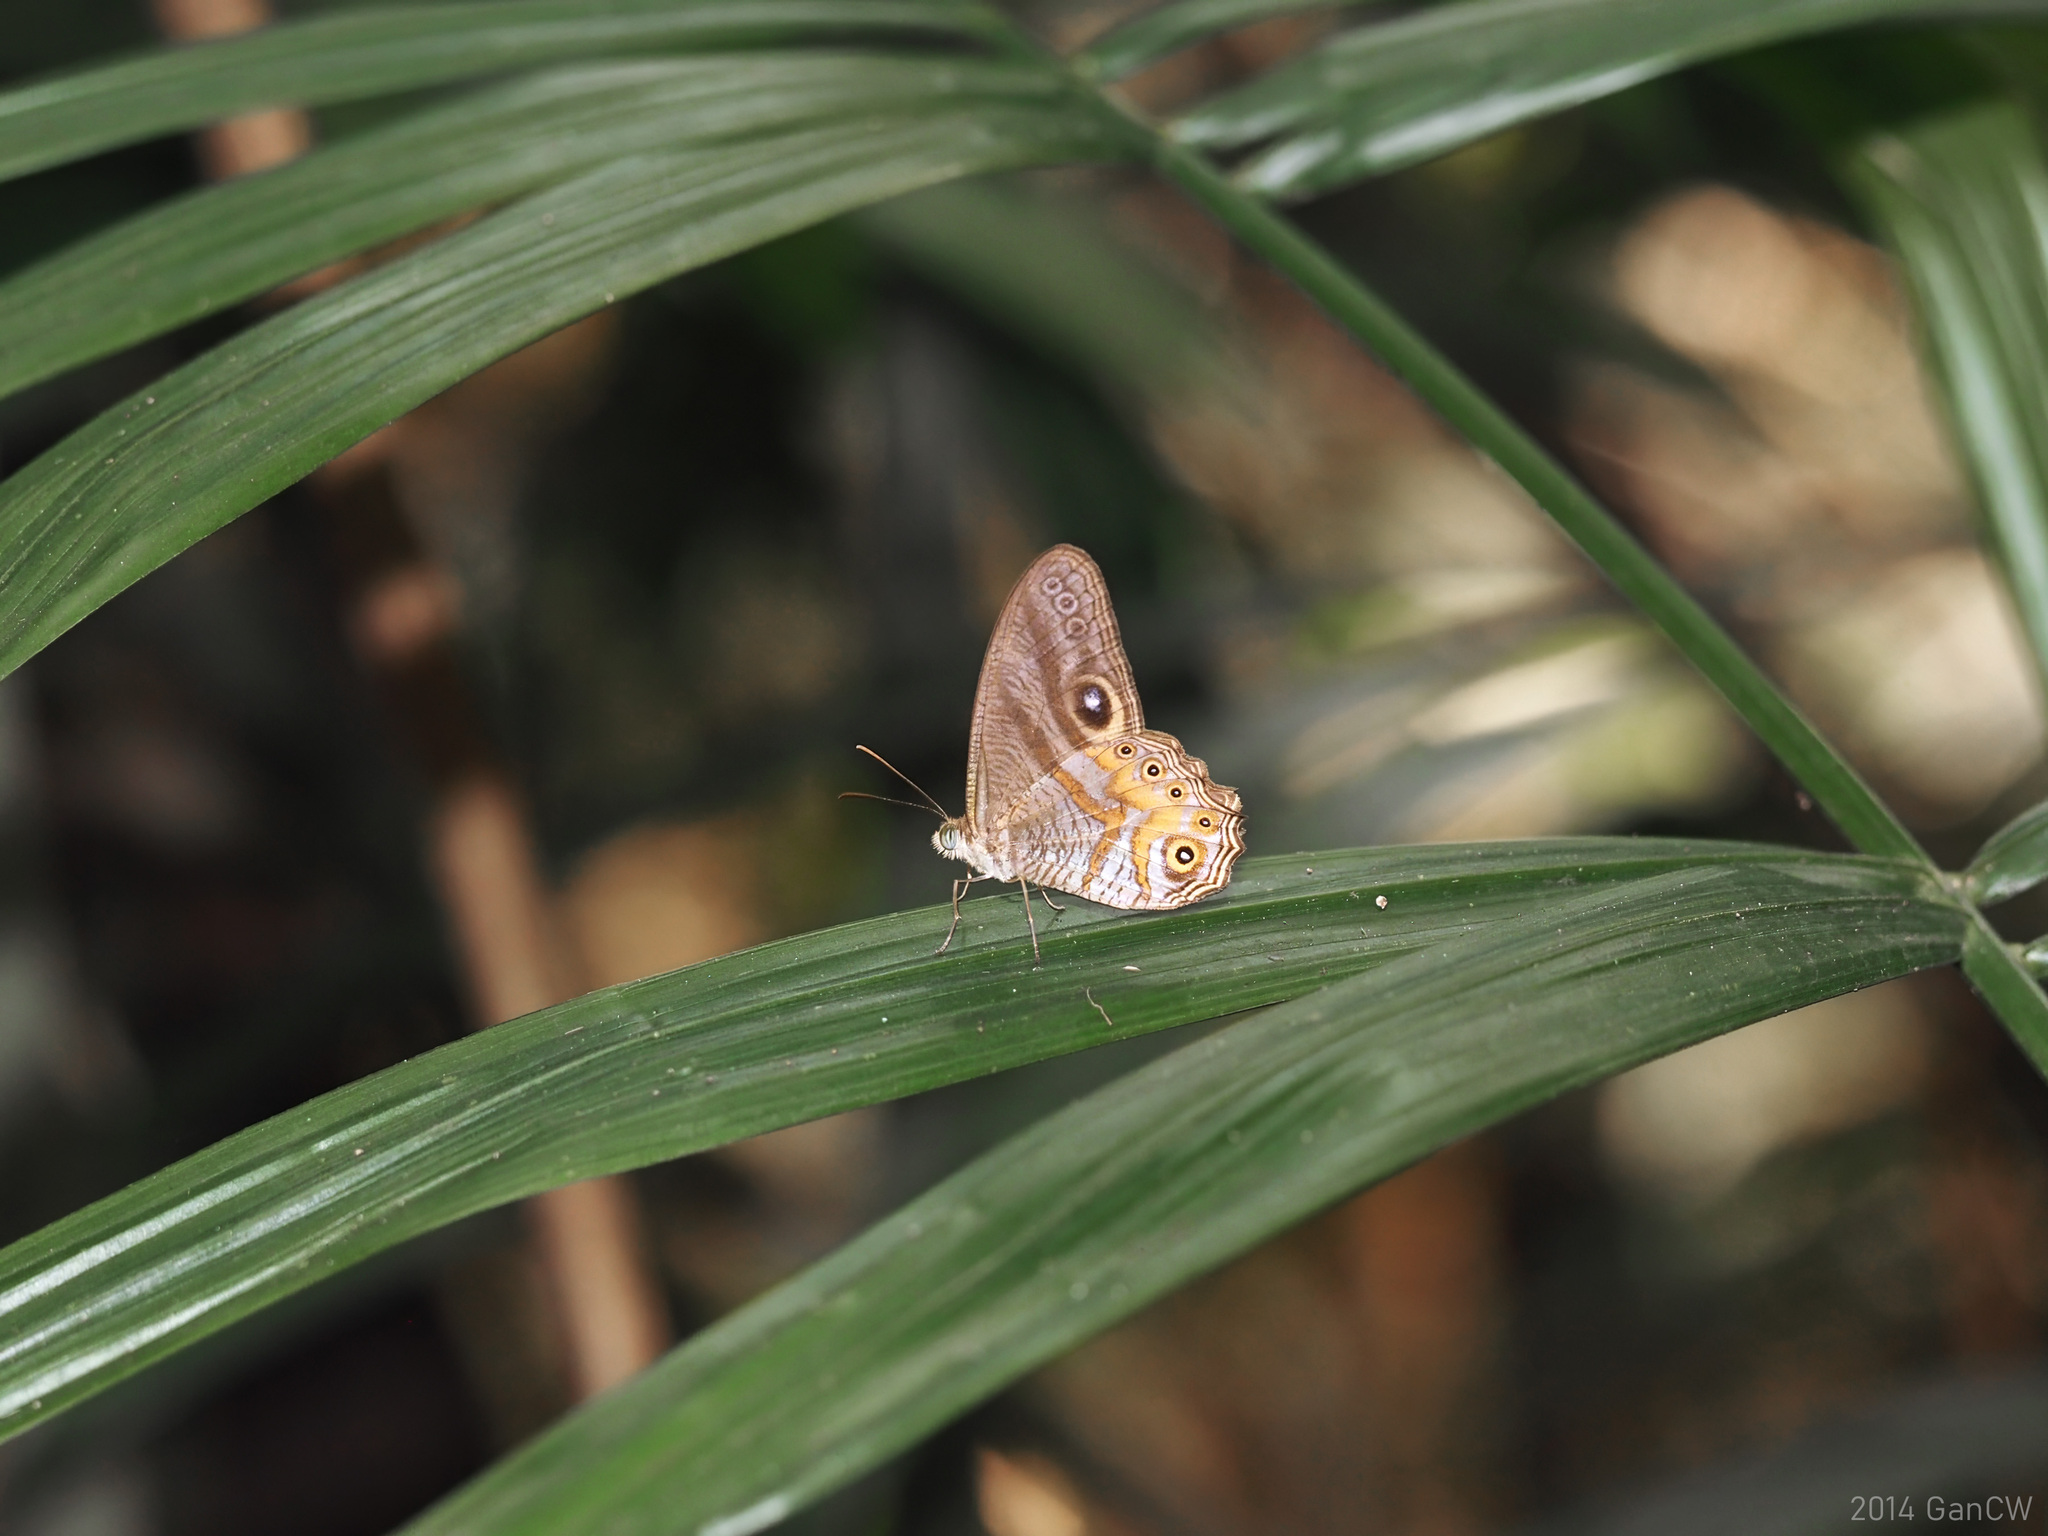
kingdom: Animalia
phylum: Arthropoda
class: Insecta
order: Lepidoptera
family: Nymphalidae
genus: Erites
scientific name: Erites angularis
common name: Angled cyclops
